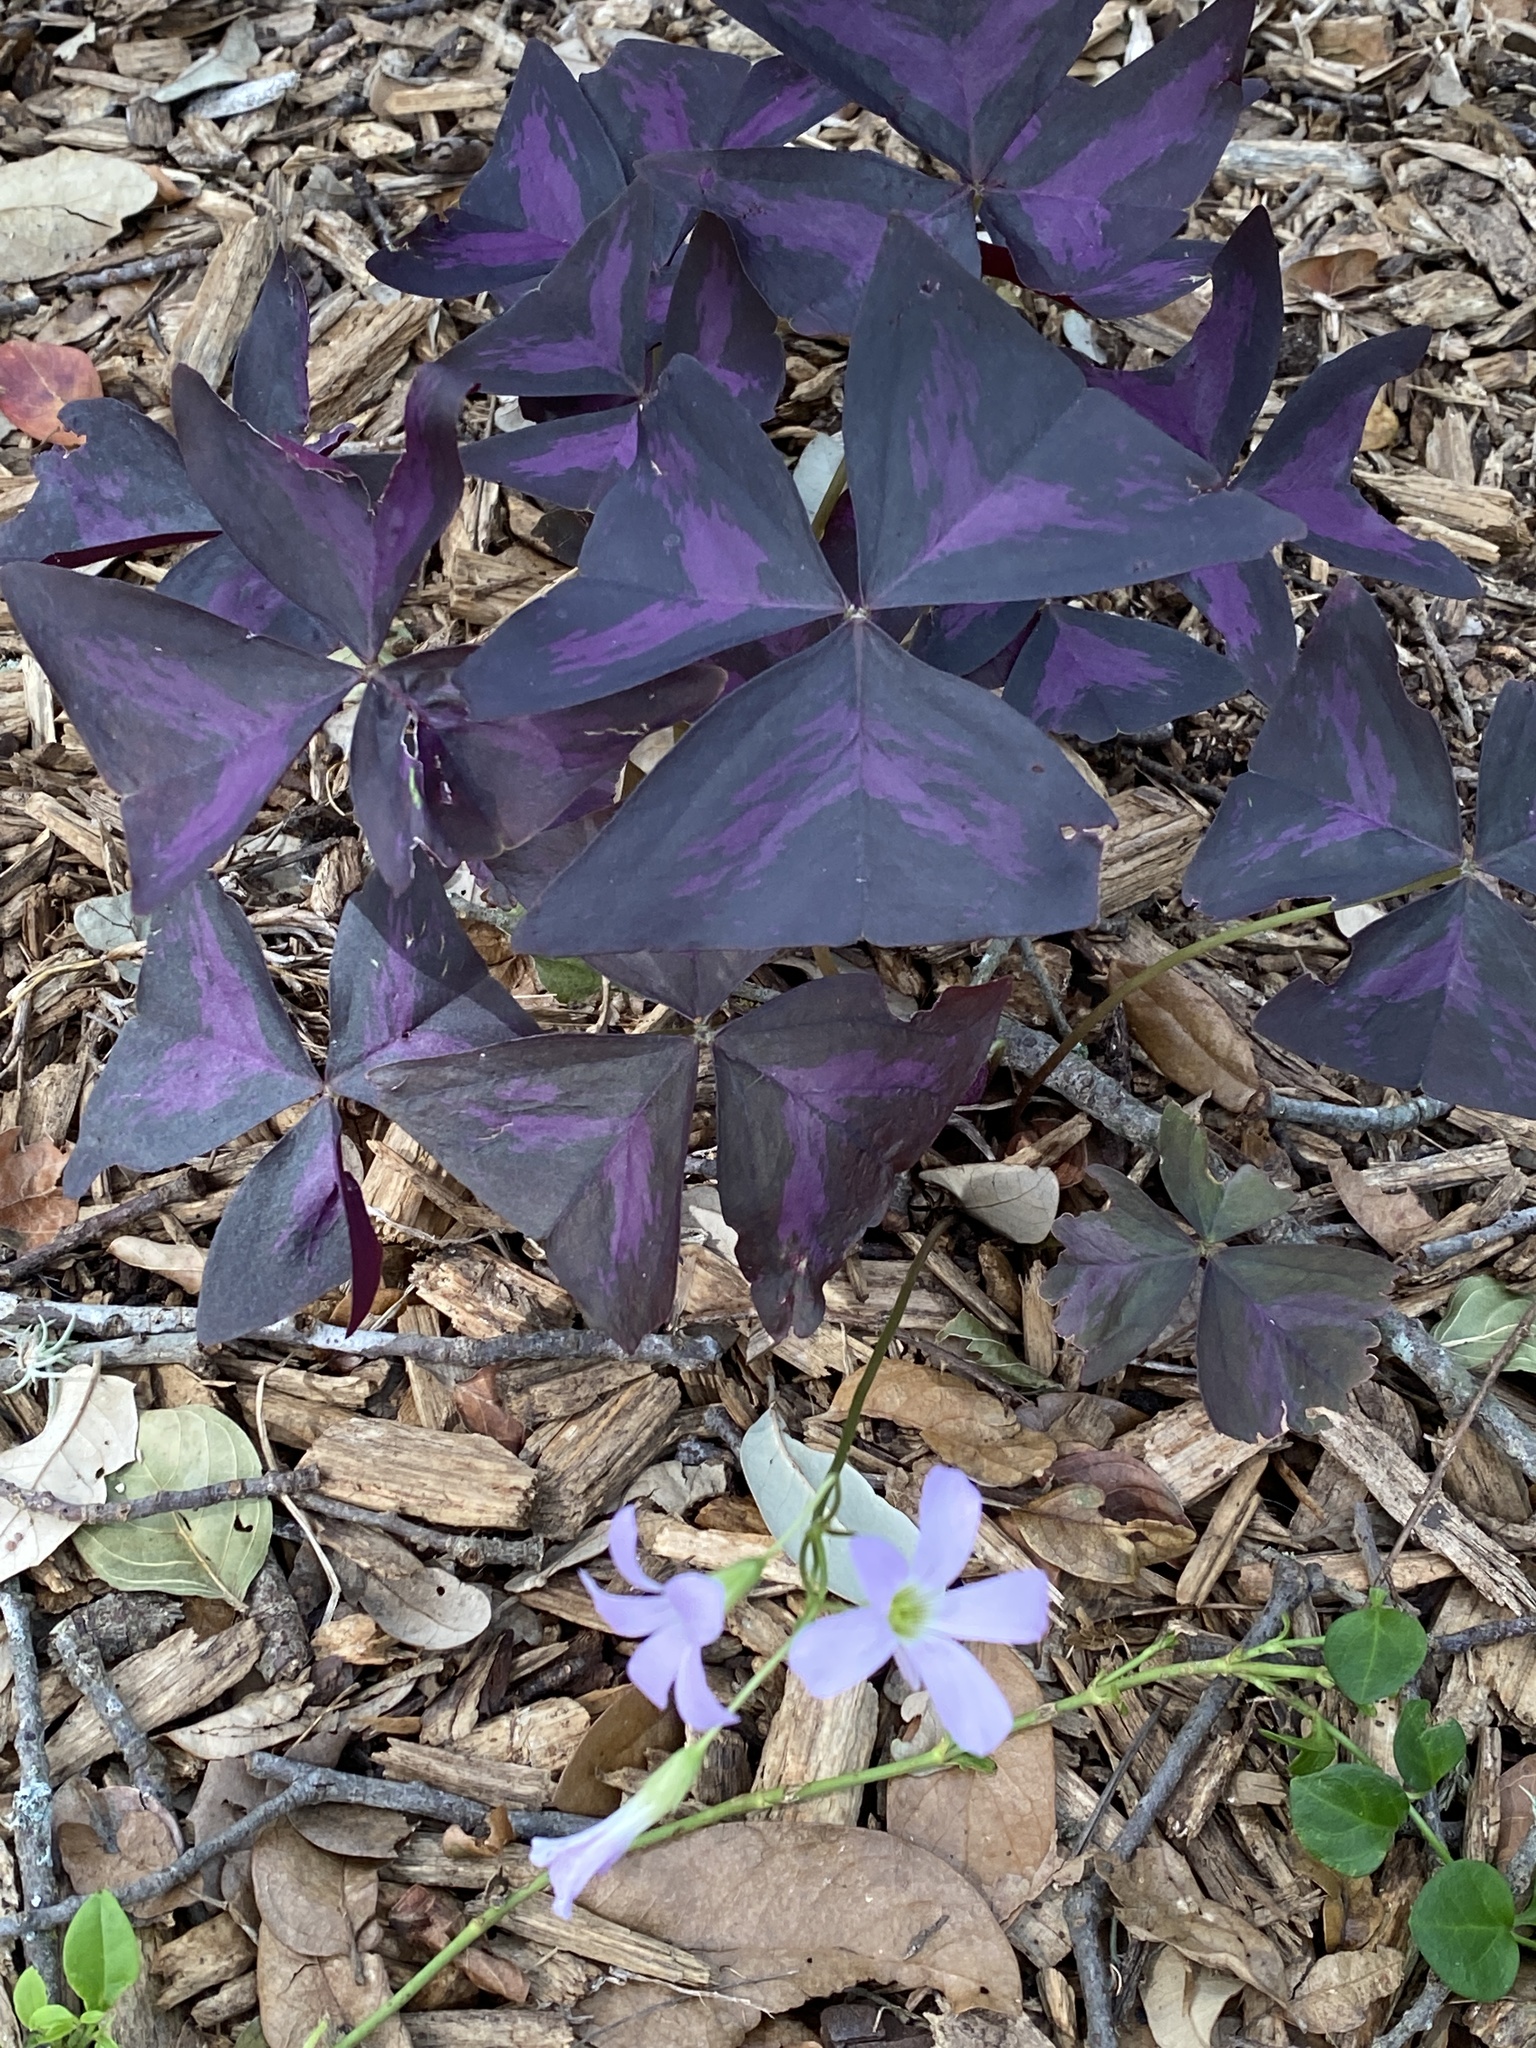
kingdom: Plantae
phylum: Tracheophyta
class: Magnoliopsida
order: Oxalidales
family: Oxalidaceae
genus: Oxalis
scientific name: Oxalis triangularis
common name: Wood sorrel
